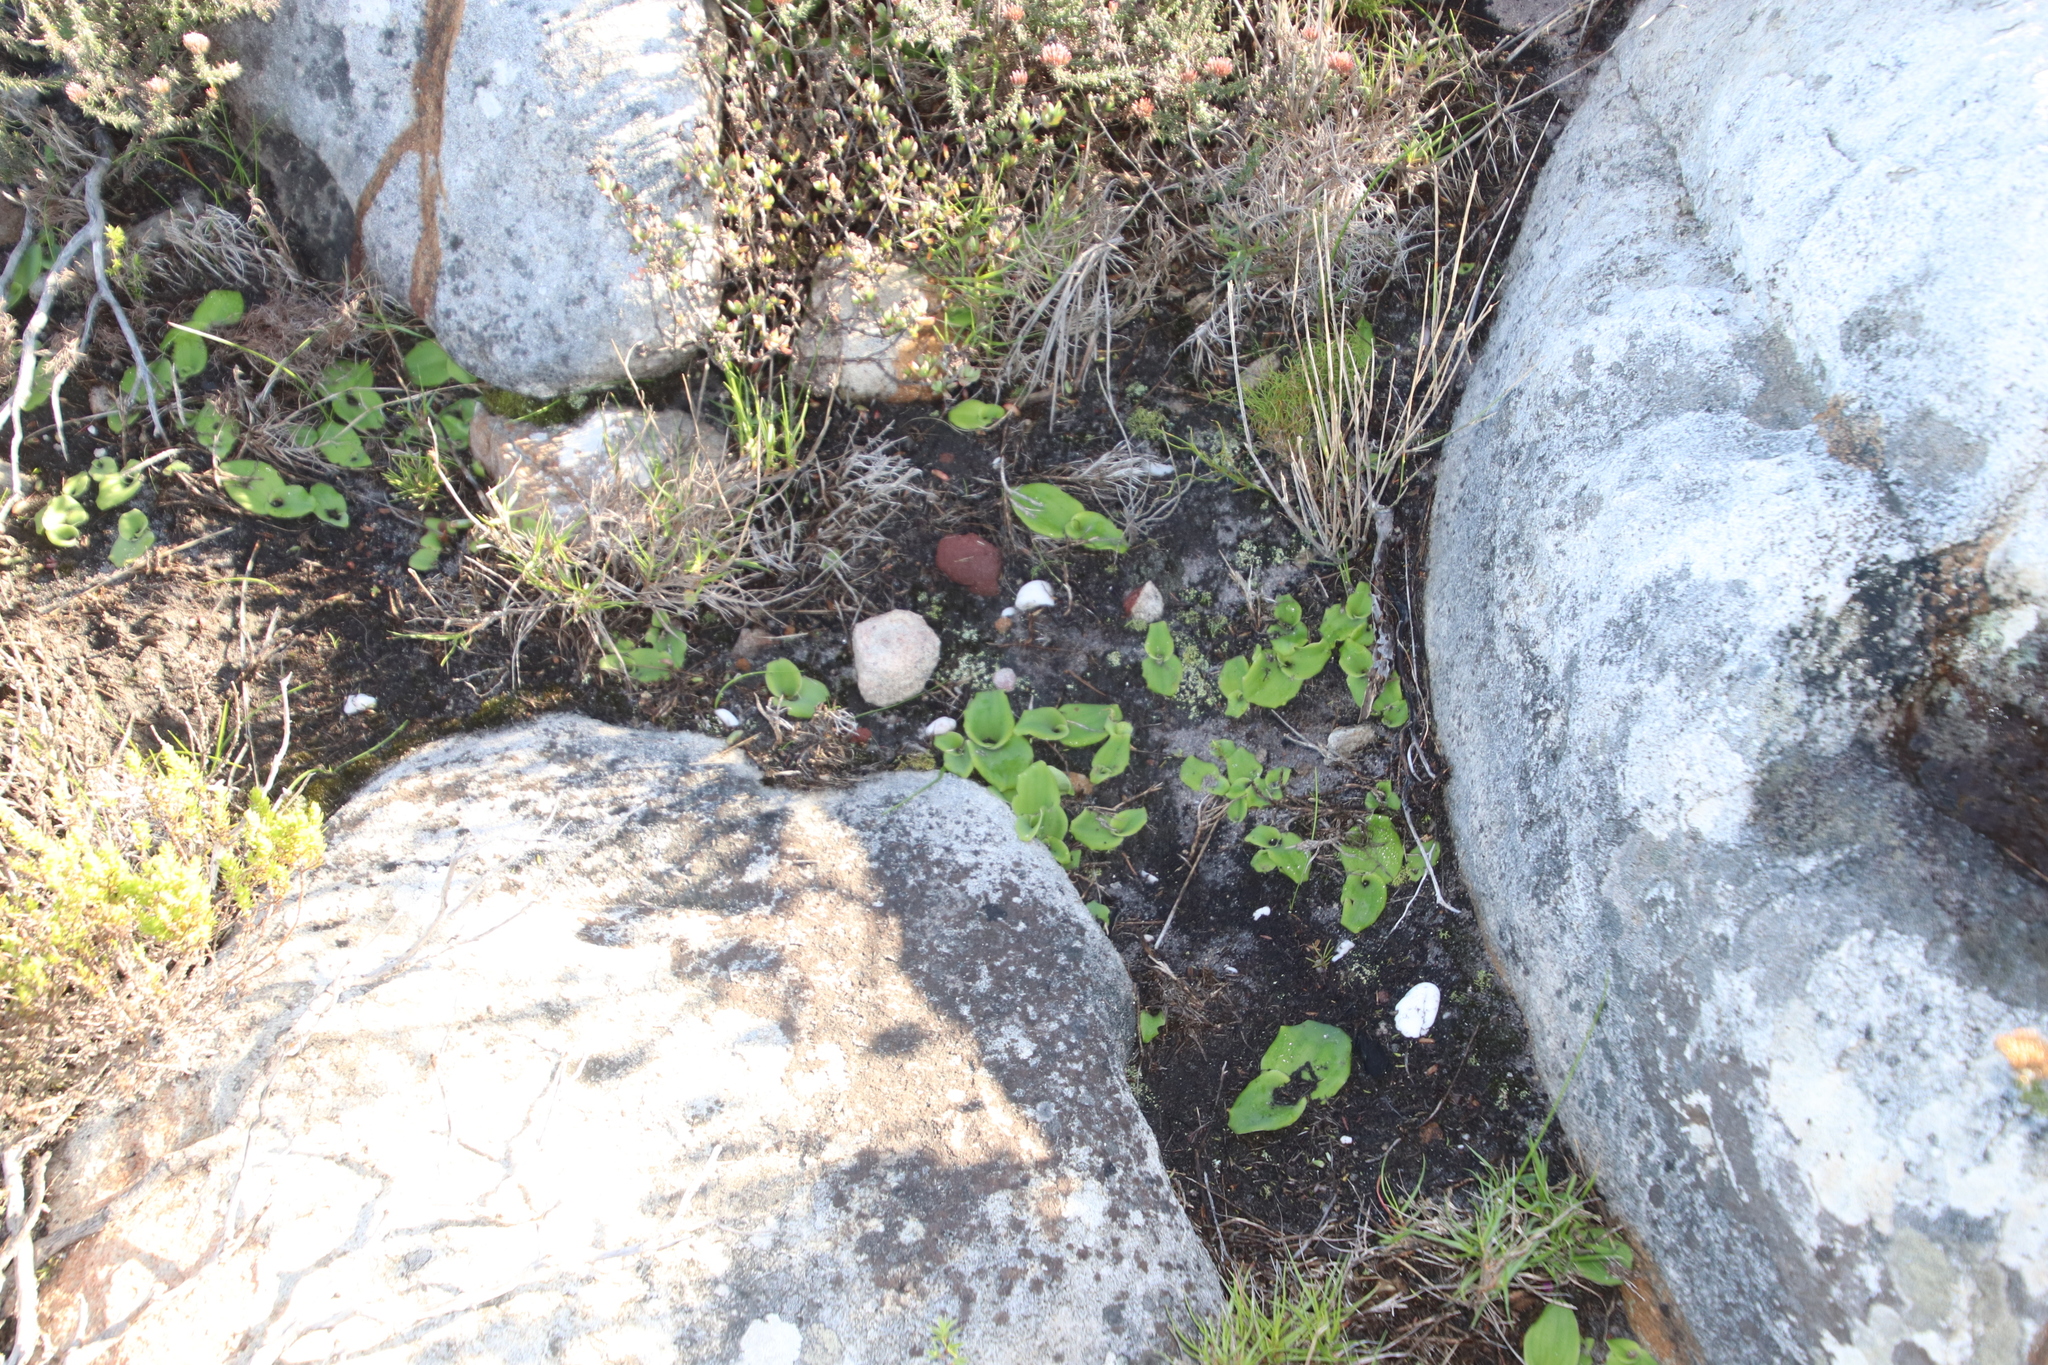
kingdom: Plantae
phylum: Tracheophyta
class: Liliopsida
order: Asparagales
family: Orchidaceae
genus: Satyrium
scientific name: Satyrium odorum
